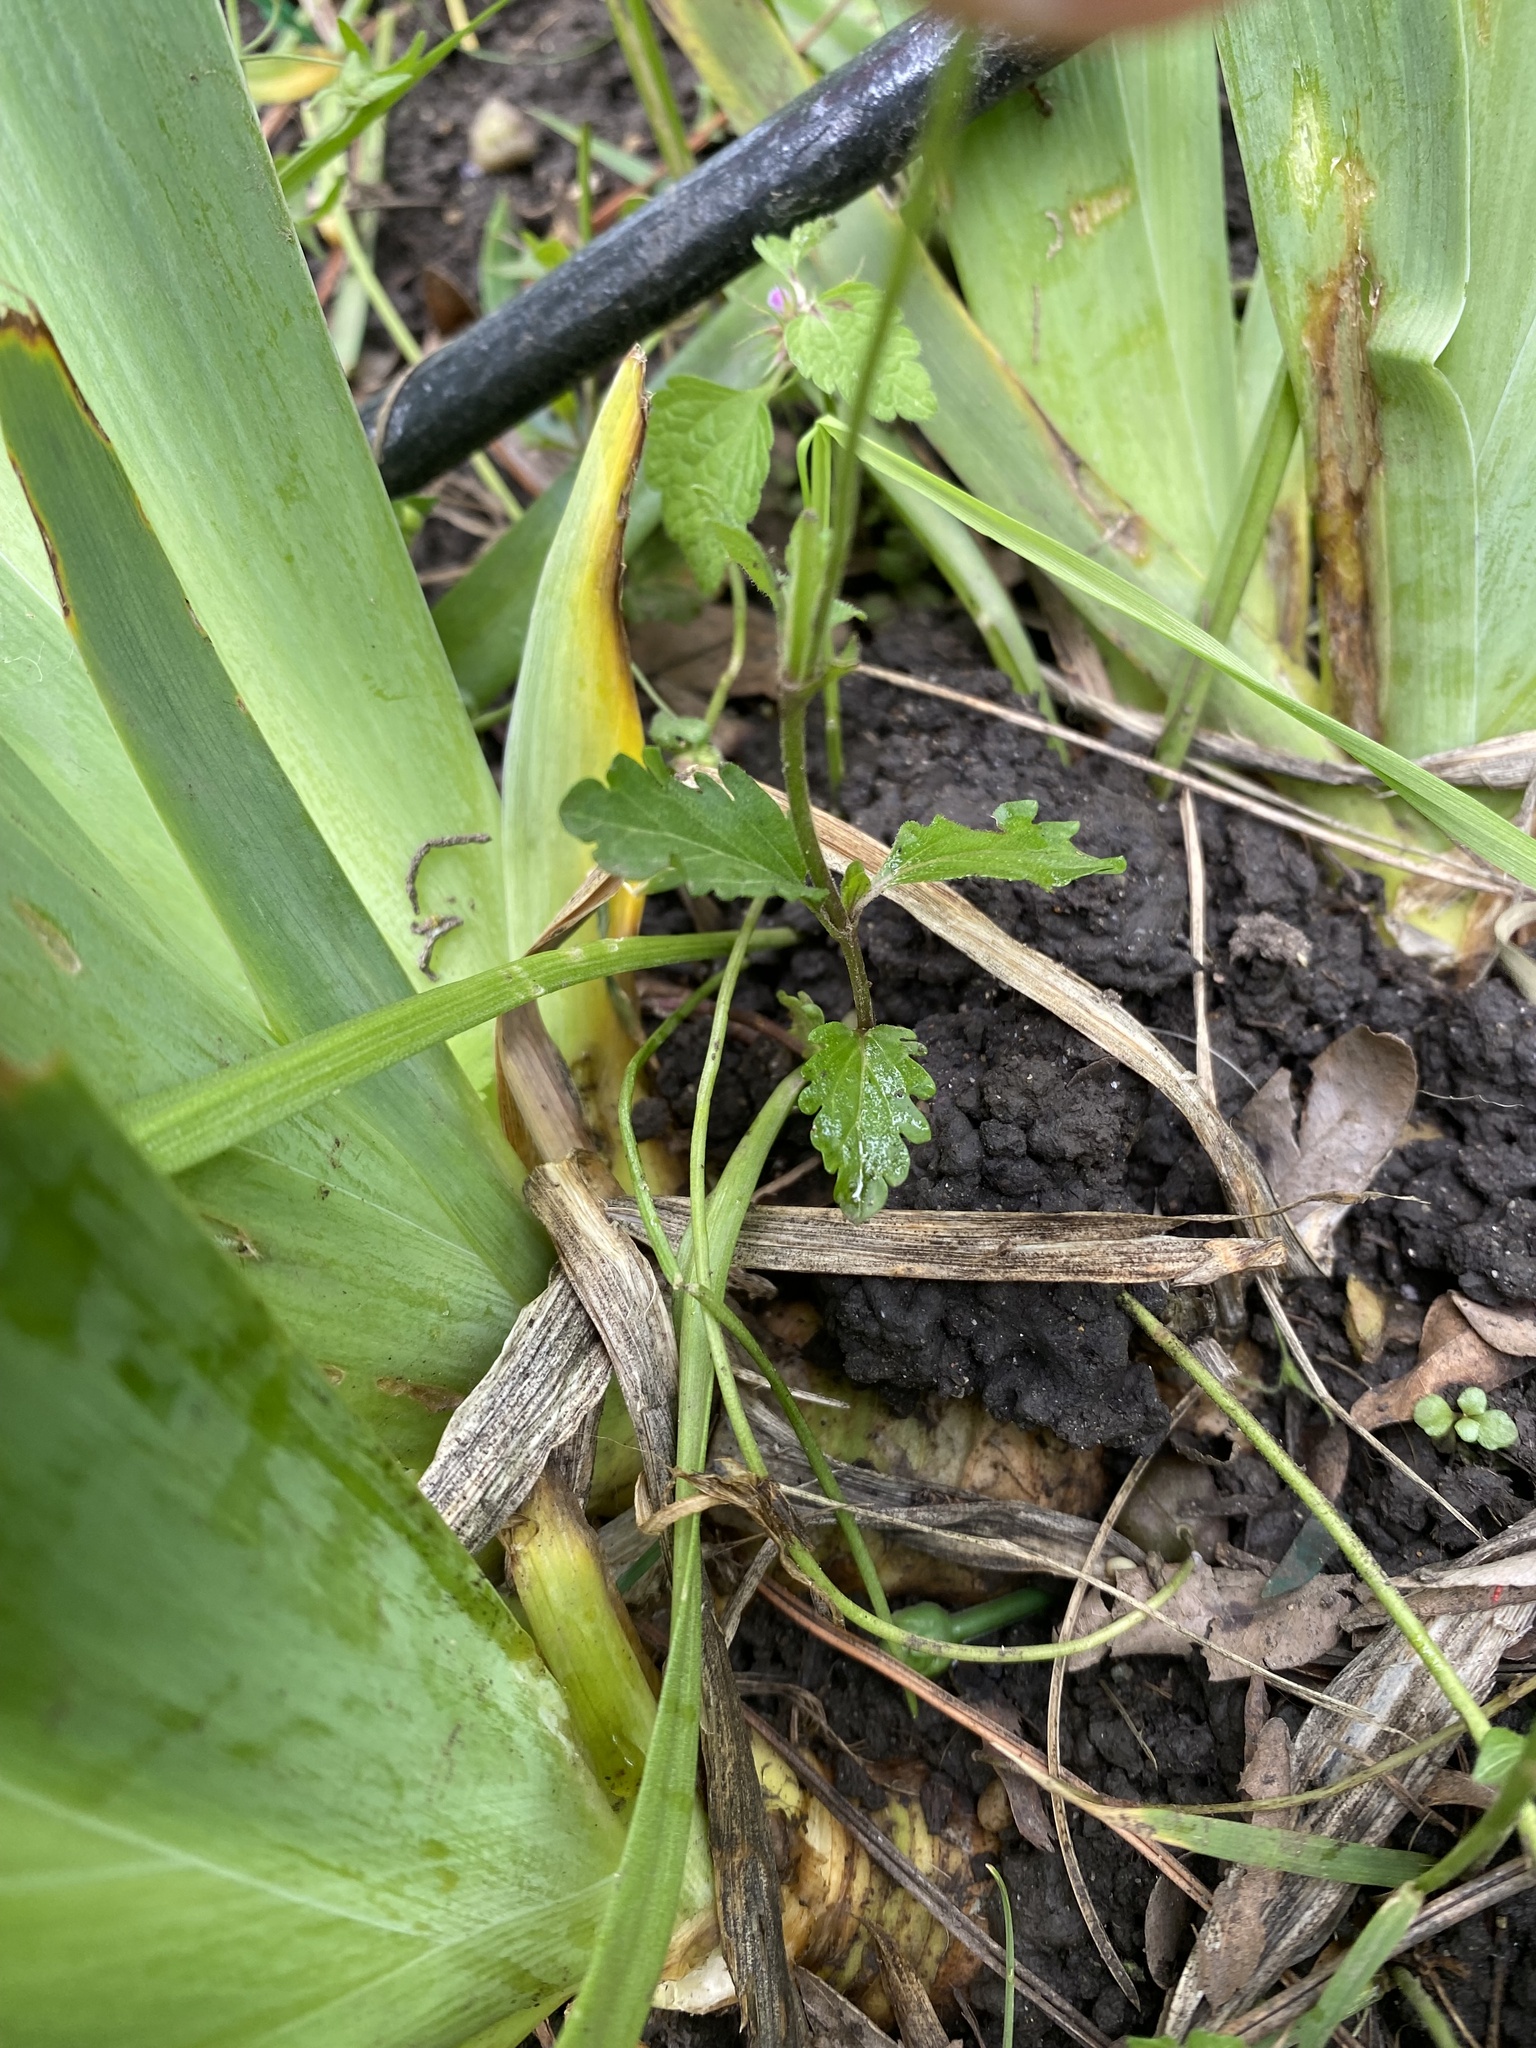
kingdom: Plantae
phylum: Tracheophyta
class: Magnoliopsida
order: Lamiales
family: Plantaginaceae
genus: Veronica
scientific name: Veronica
